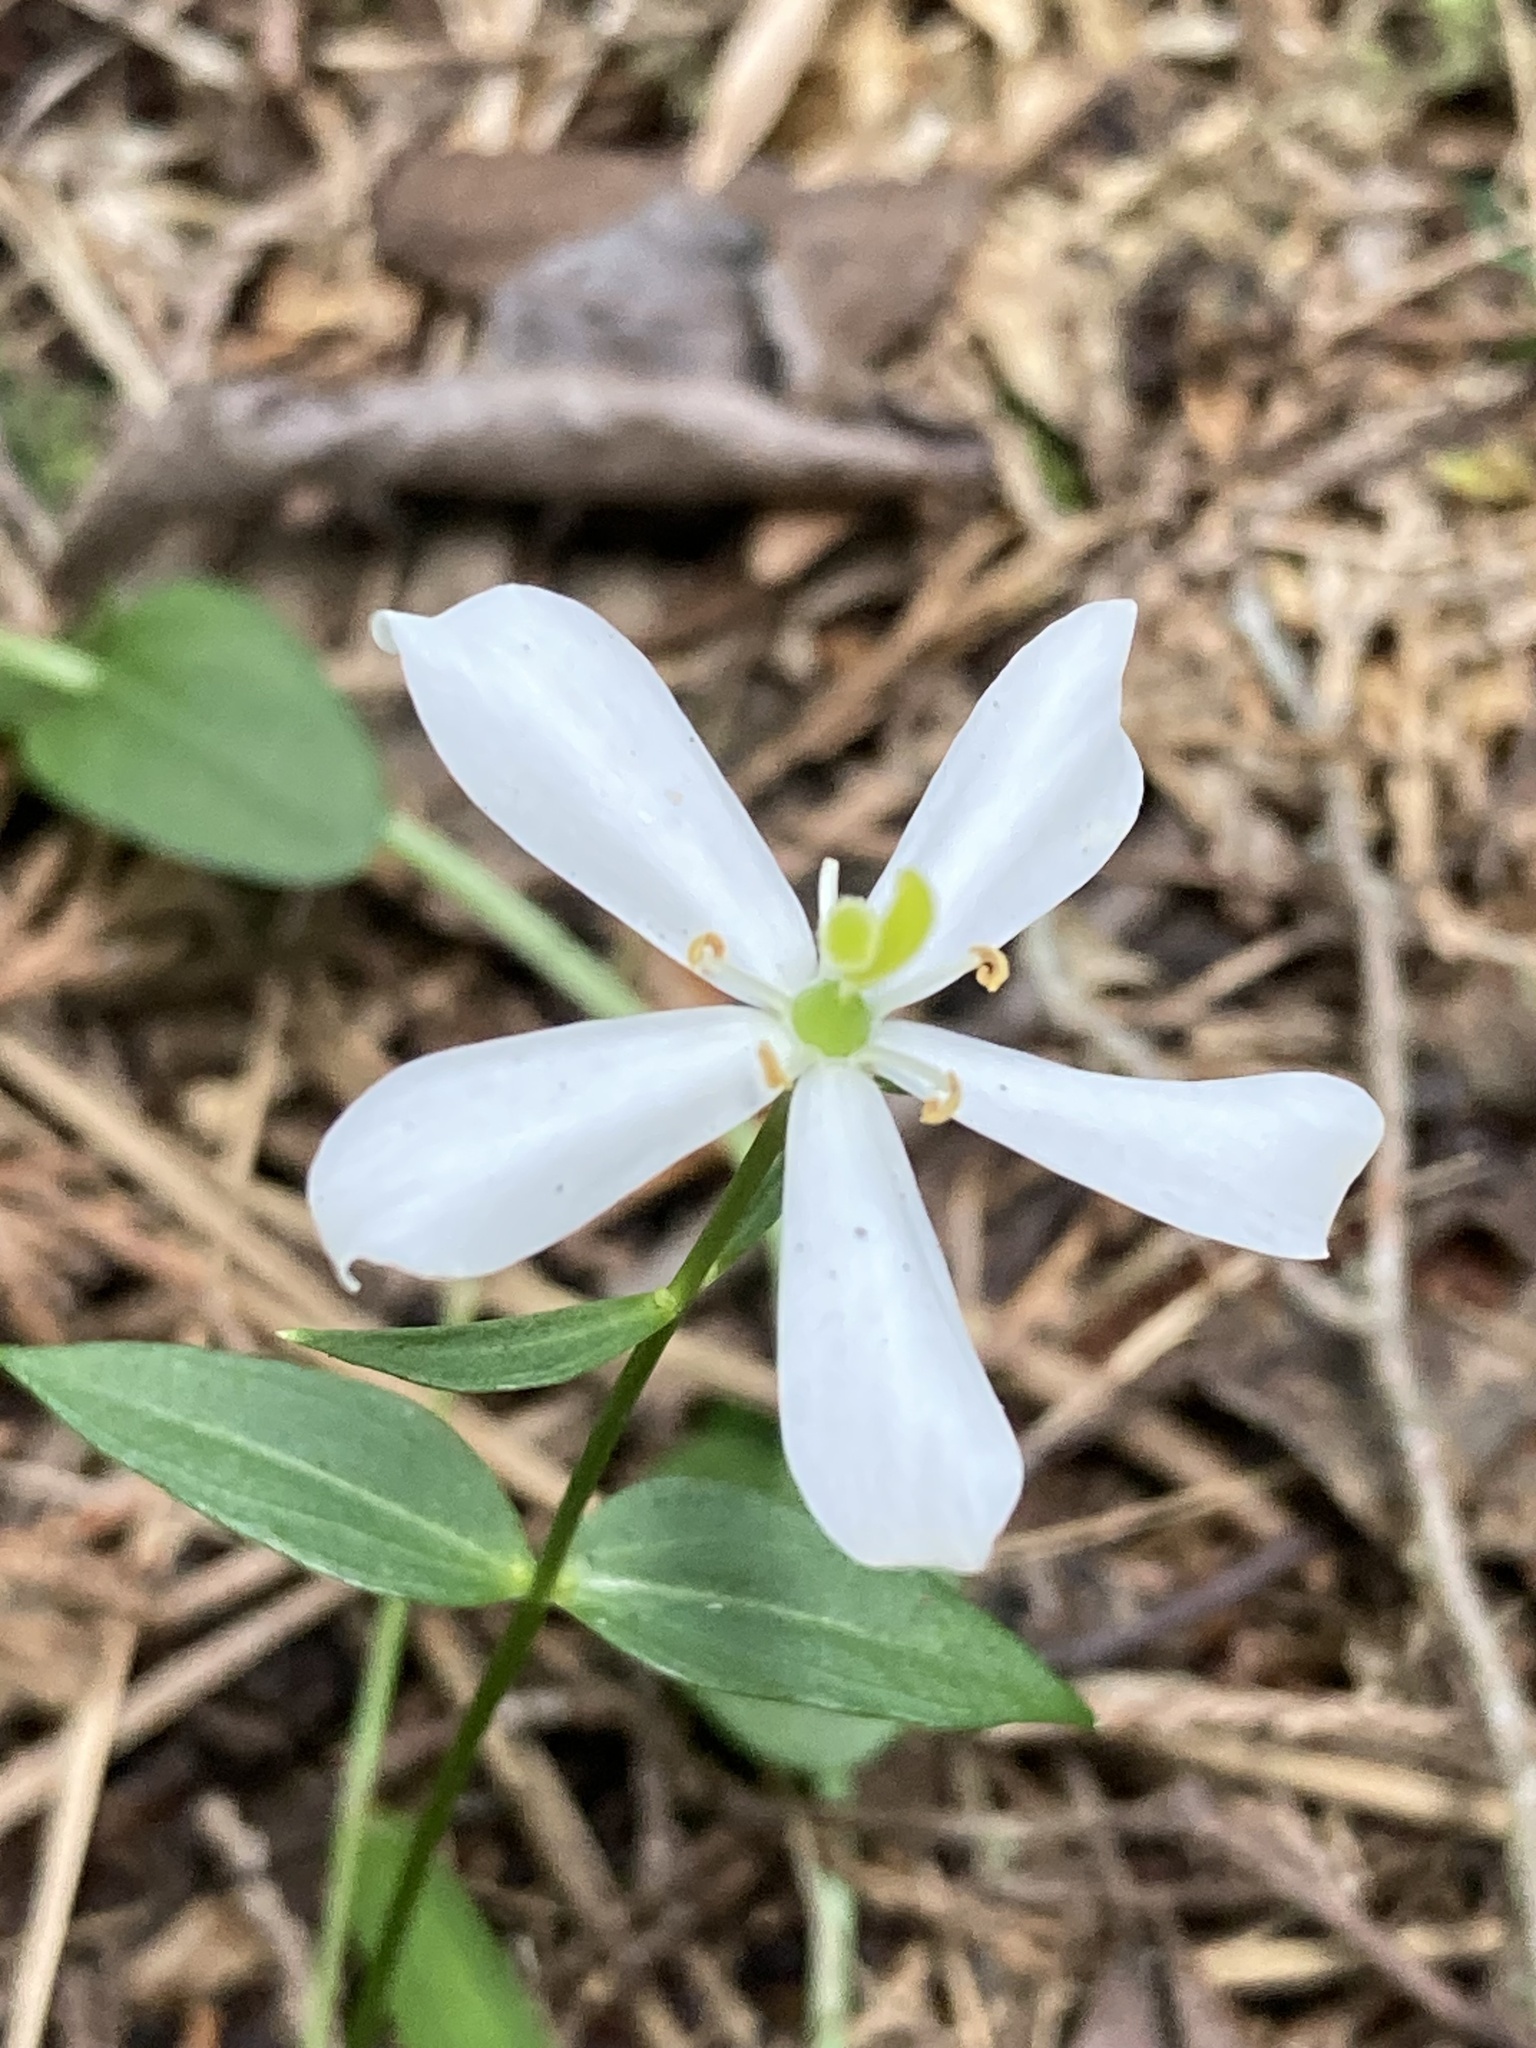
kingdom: Plantae
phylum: Tracheophyta
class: Magnoliopsida
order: Gentianales
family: Gentianaceae
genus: Sabatia
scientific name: Sabatia difformis
